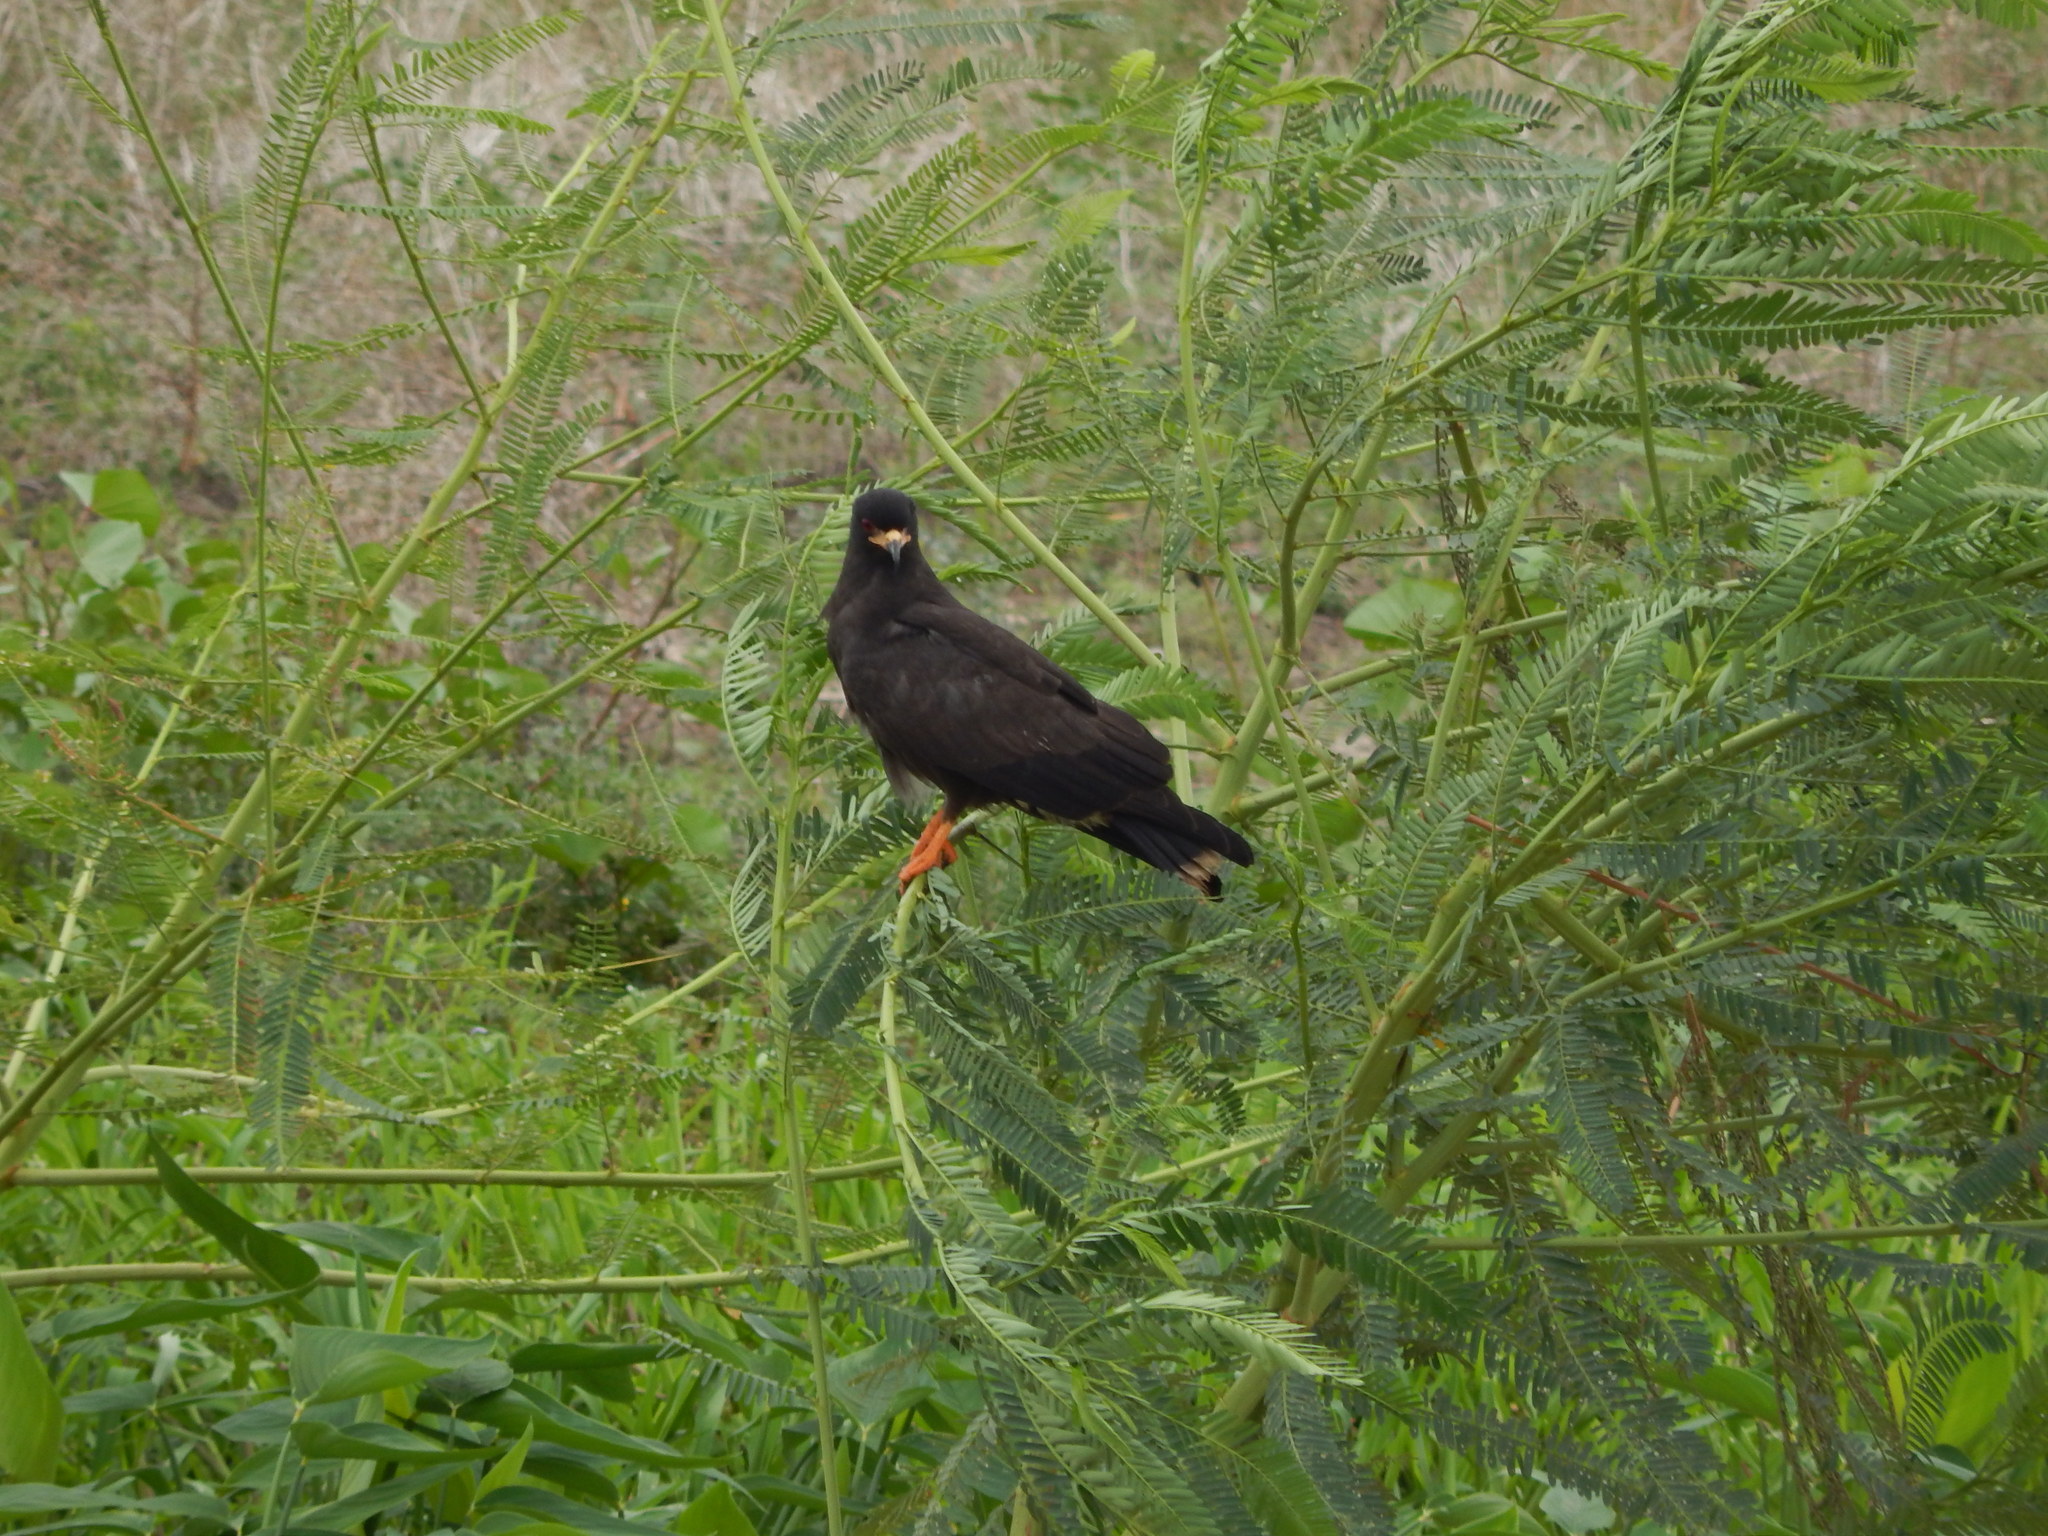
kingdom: Animalia
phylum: Chordata
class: Aves
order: Accipitriformes
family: Accipitridae
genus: Rostrhamus
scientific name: Rostrhamus sociabilis
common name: Snail kite
